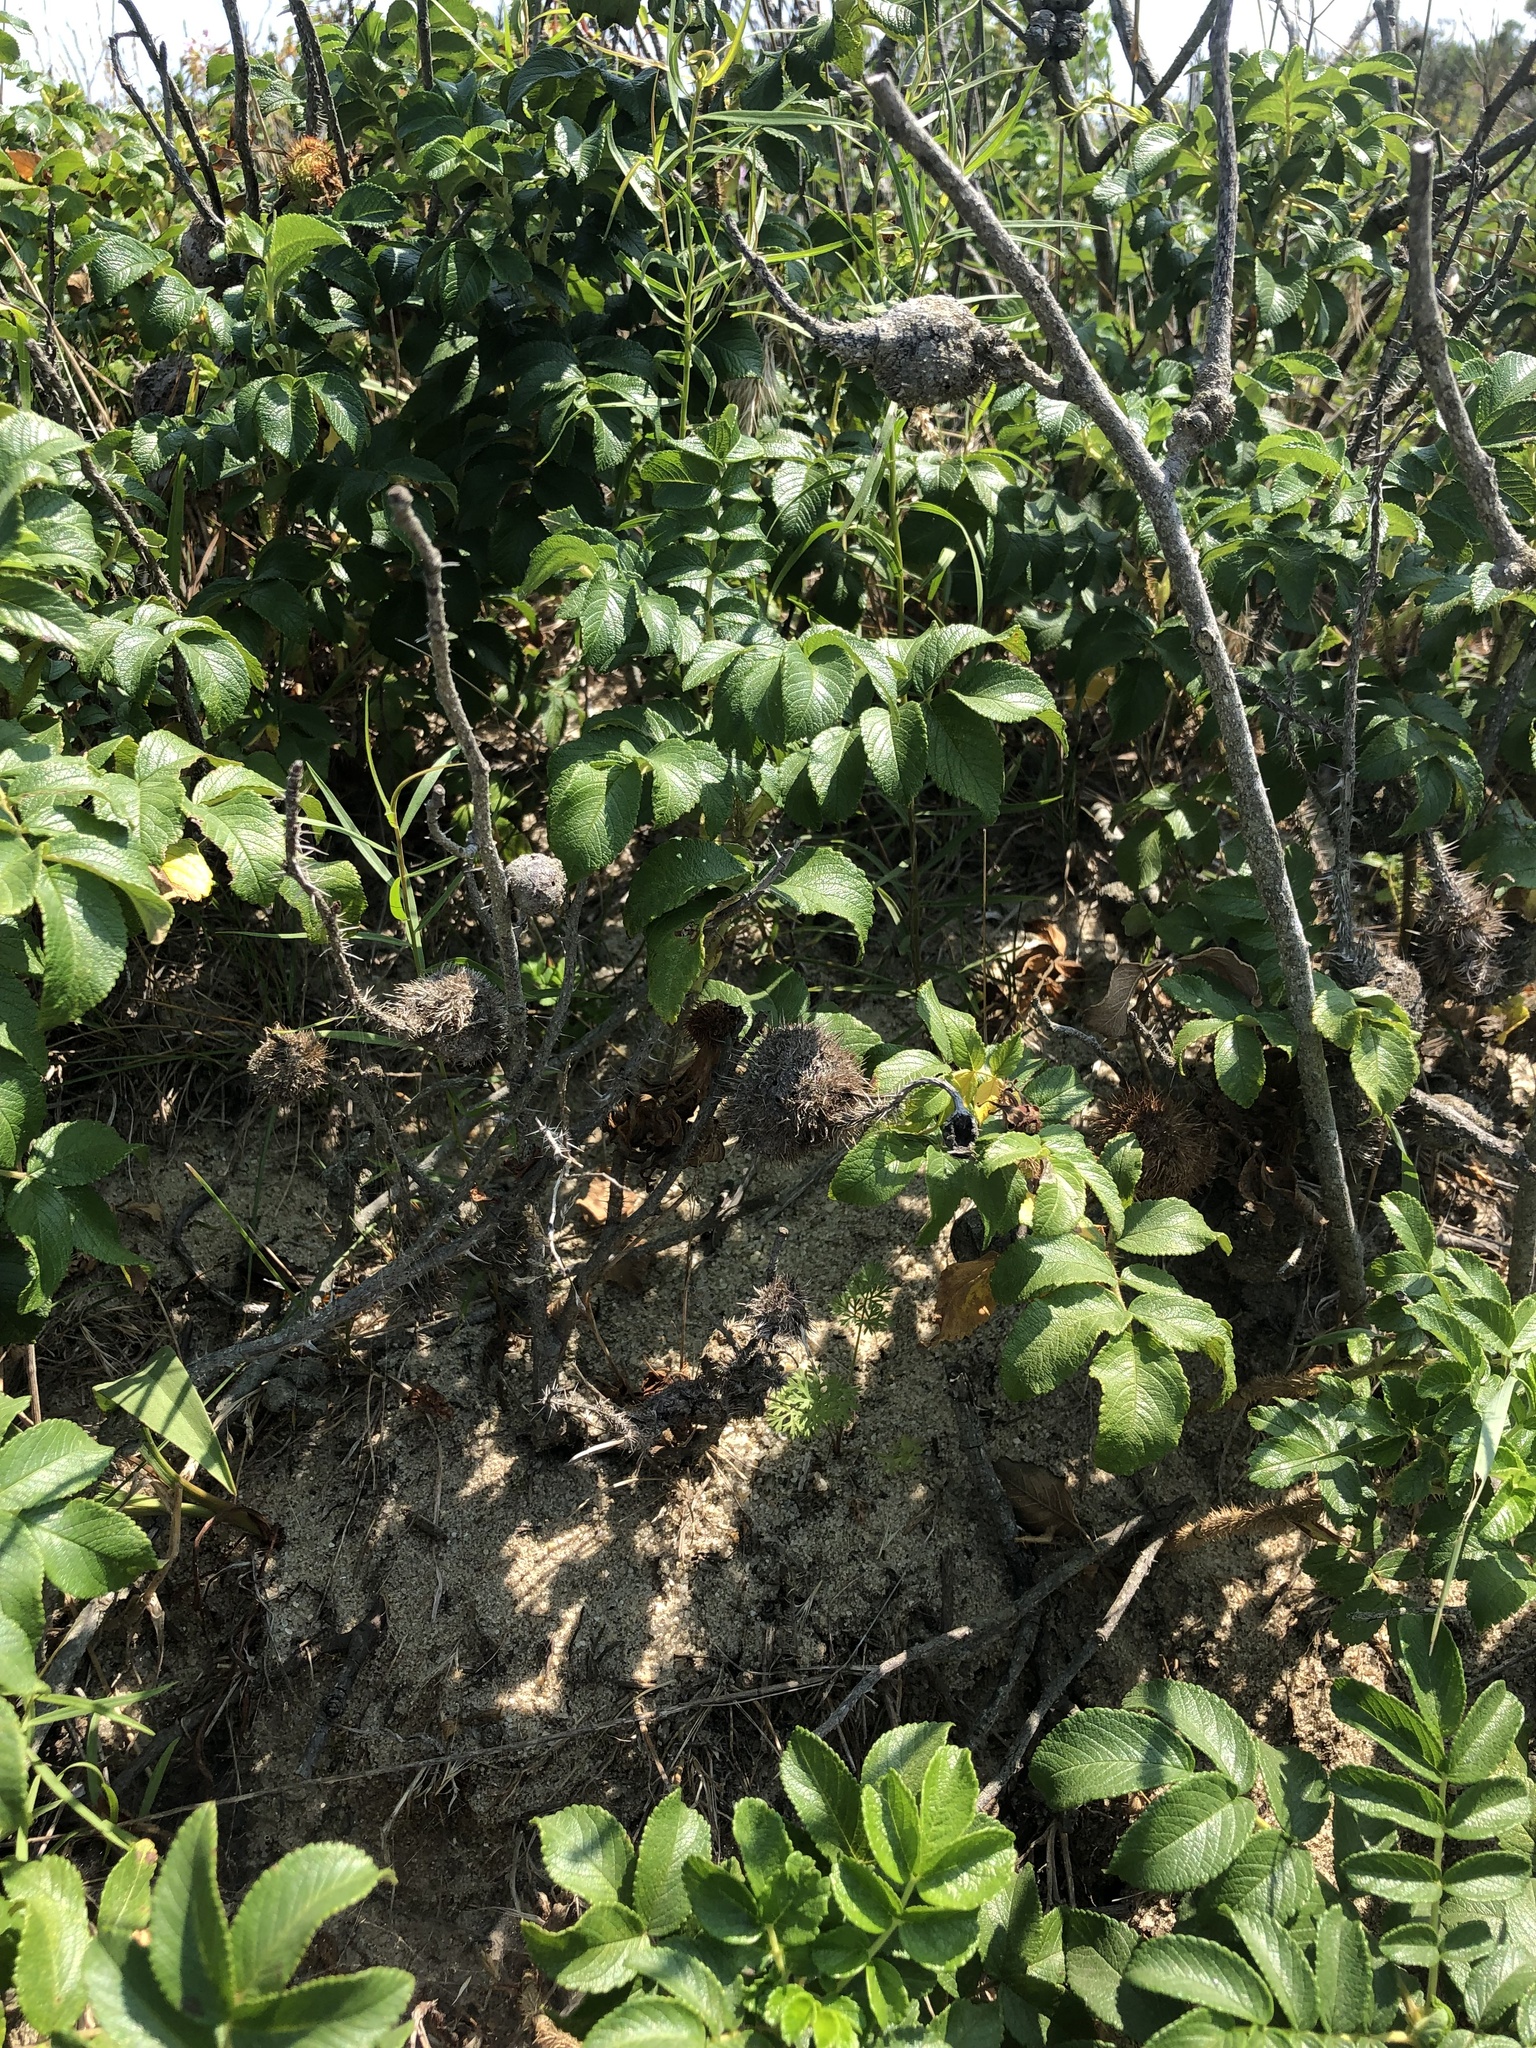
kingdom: Animalia
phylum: Arthropoda
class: Insecta
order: Hymenoptera
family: Cynipidae
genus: Diplolepis
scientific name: Diplolepis spinosa
